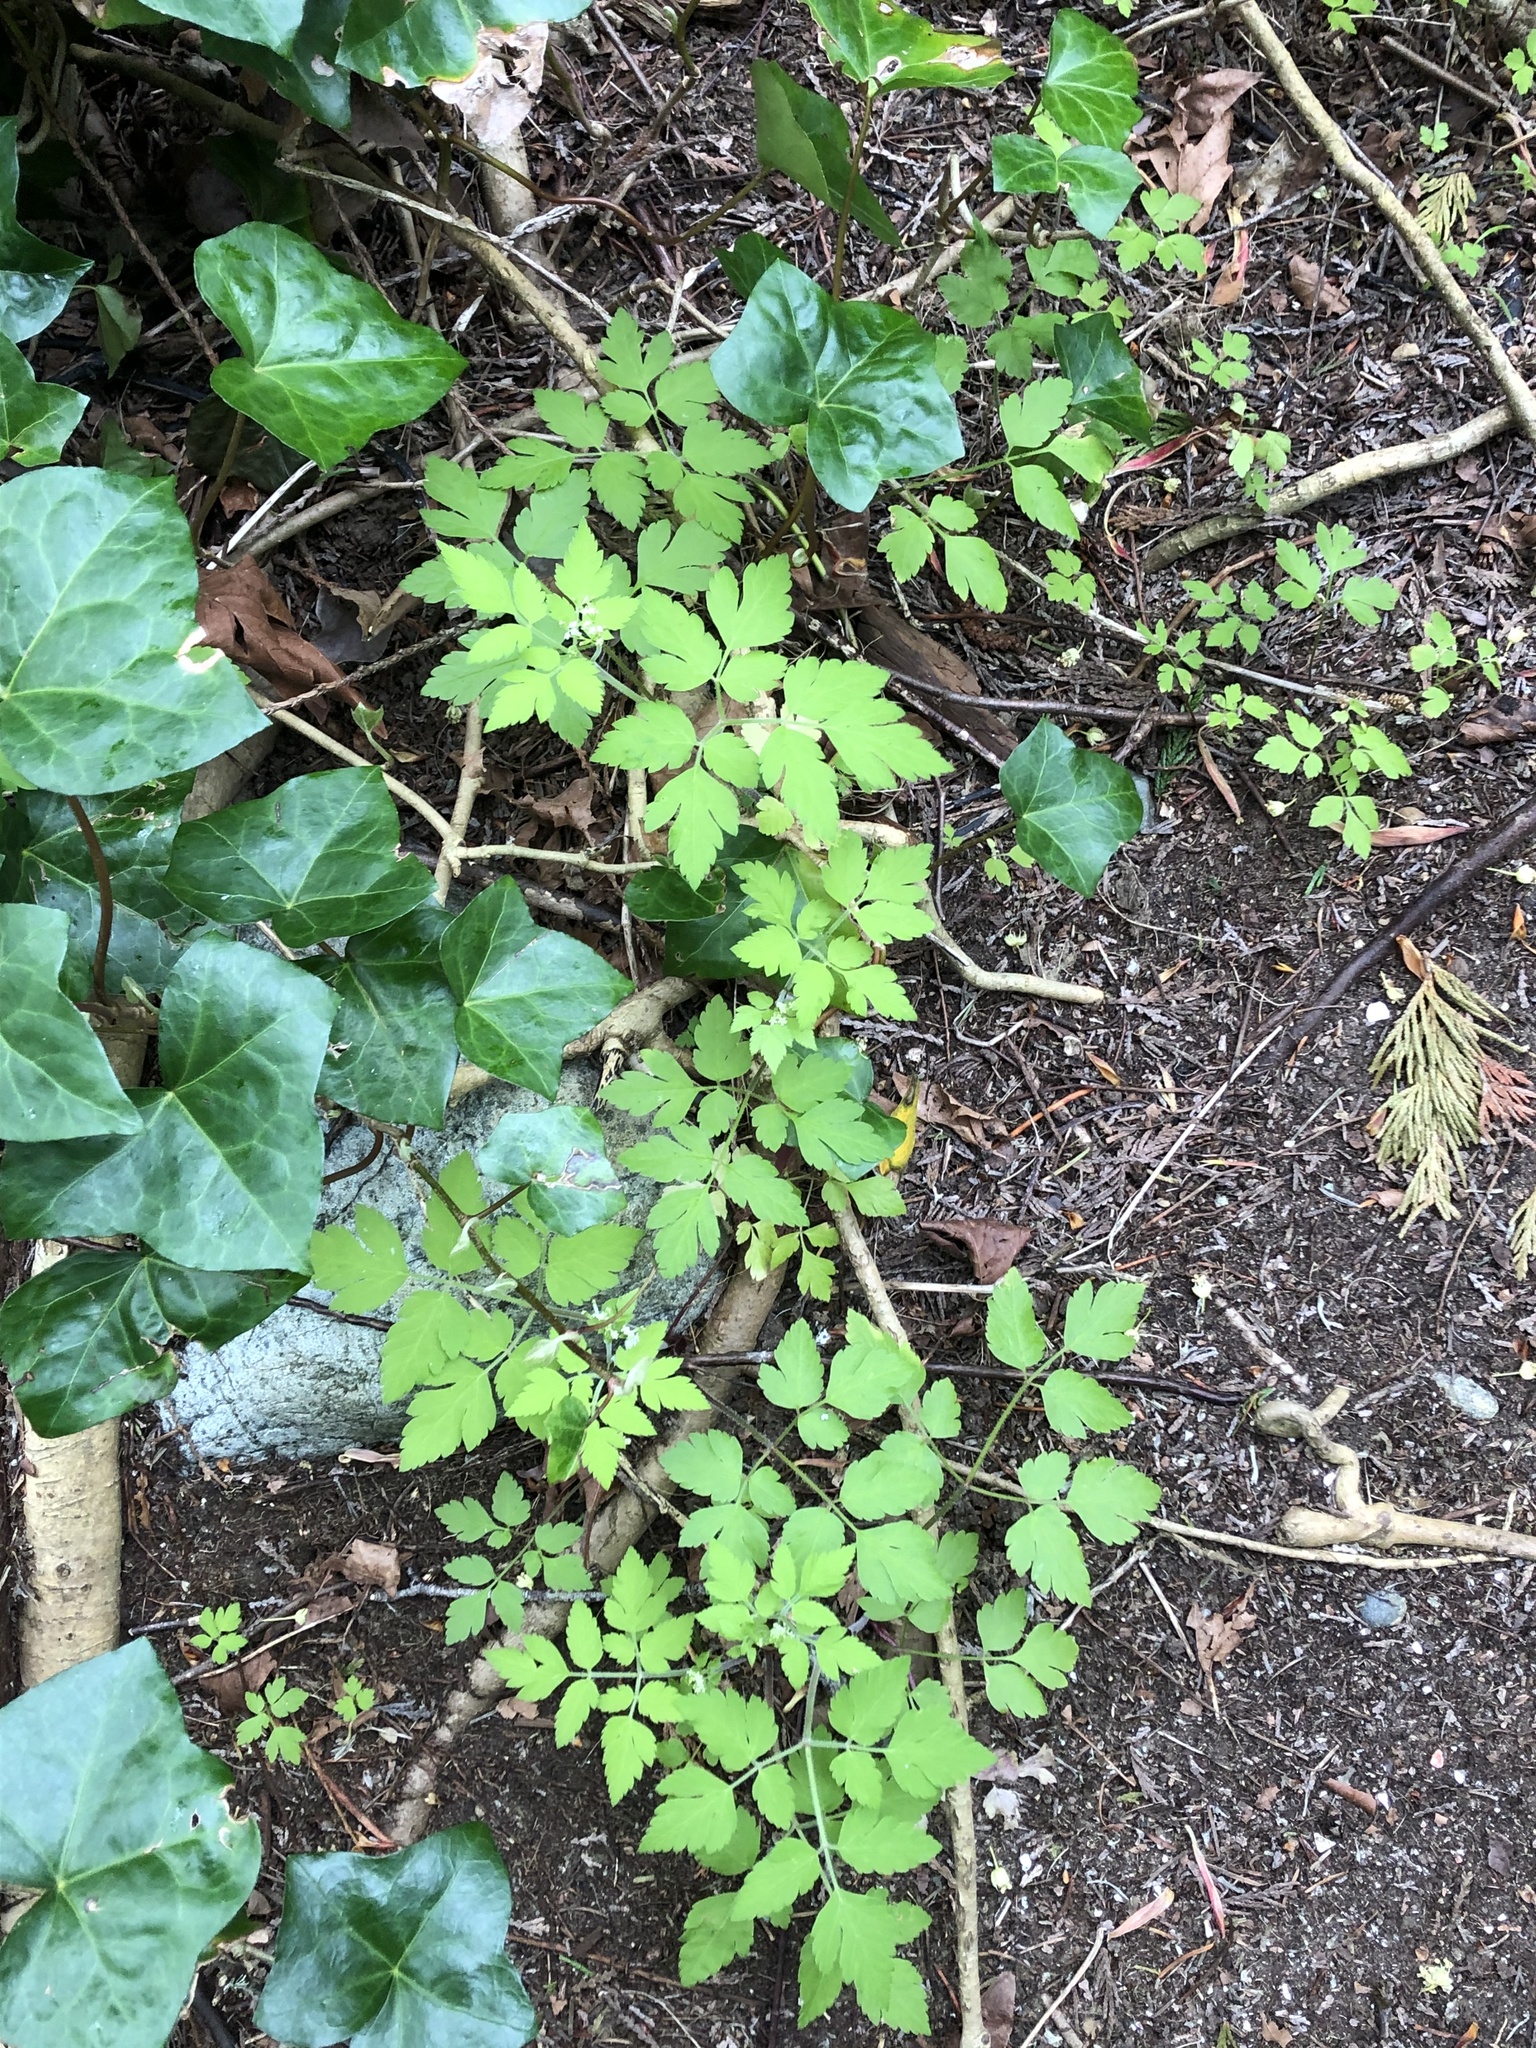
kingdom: Plantae
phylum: Tracheophyta
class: Magnoliopsida
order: Apiales
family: Apiaceae
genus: Osmorhiza
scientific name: Osmorhiza berteroi
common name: Mountain sweet cicely
